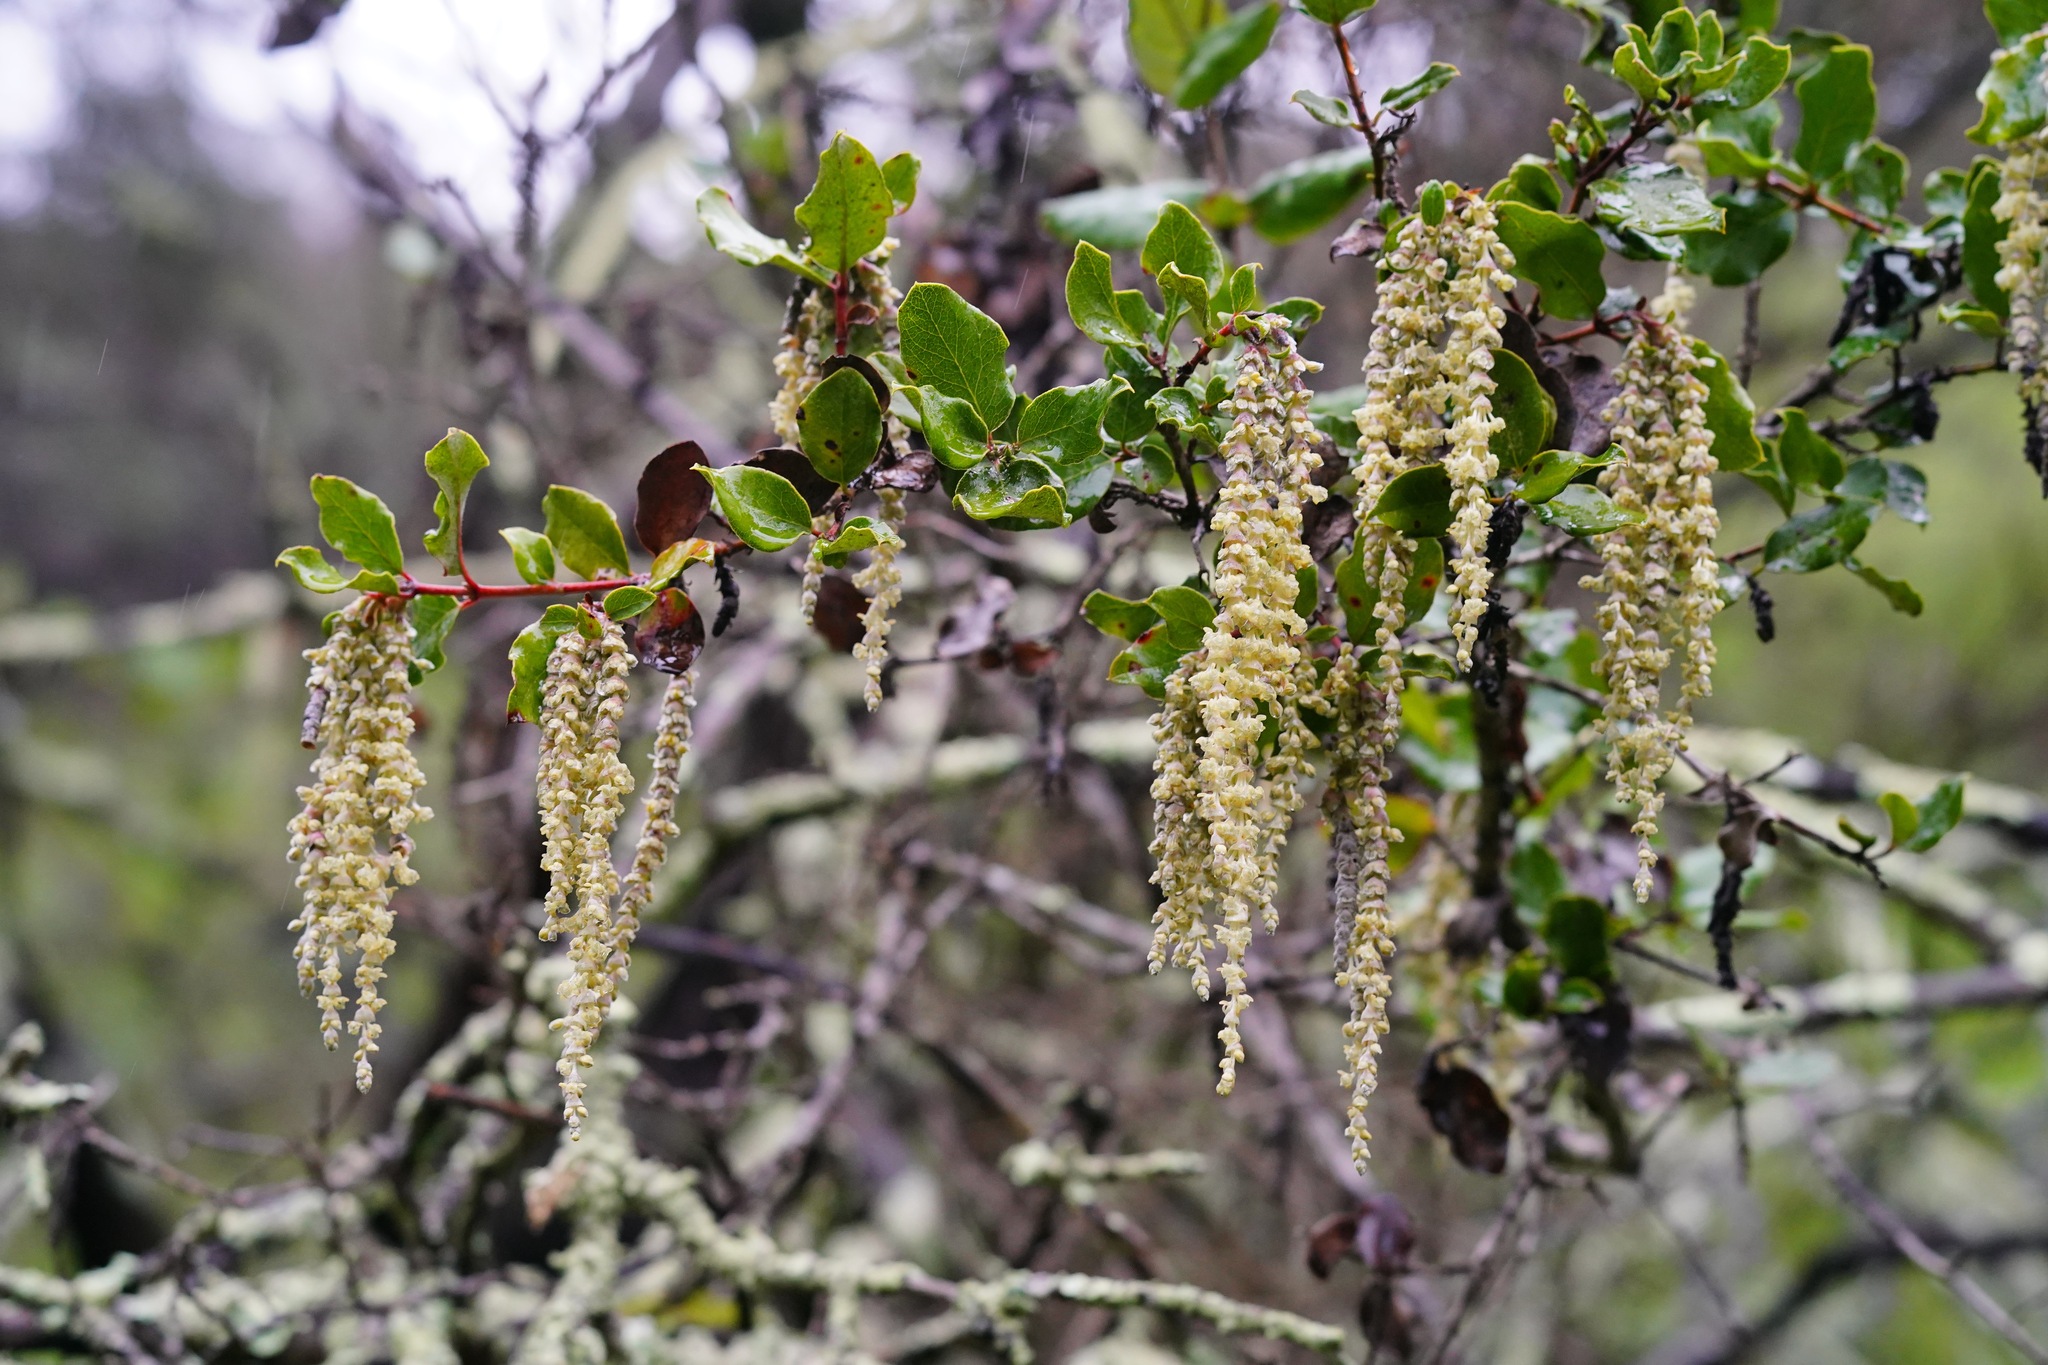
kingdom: Plantae
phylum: Tracheophyta
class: Magnoliopsida
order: Garryales
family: Garryaceae
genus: Garrya
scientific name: Garrya elliptica
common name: Silk-tassel
